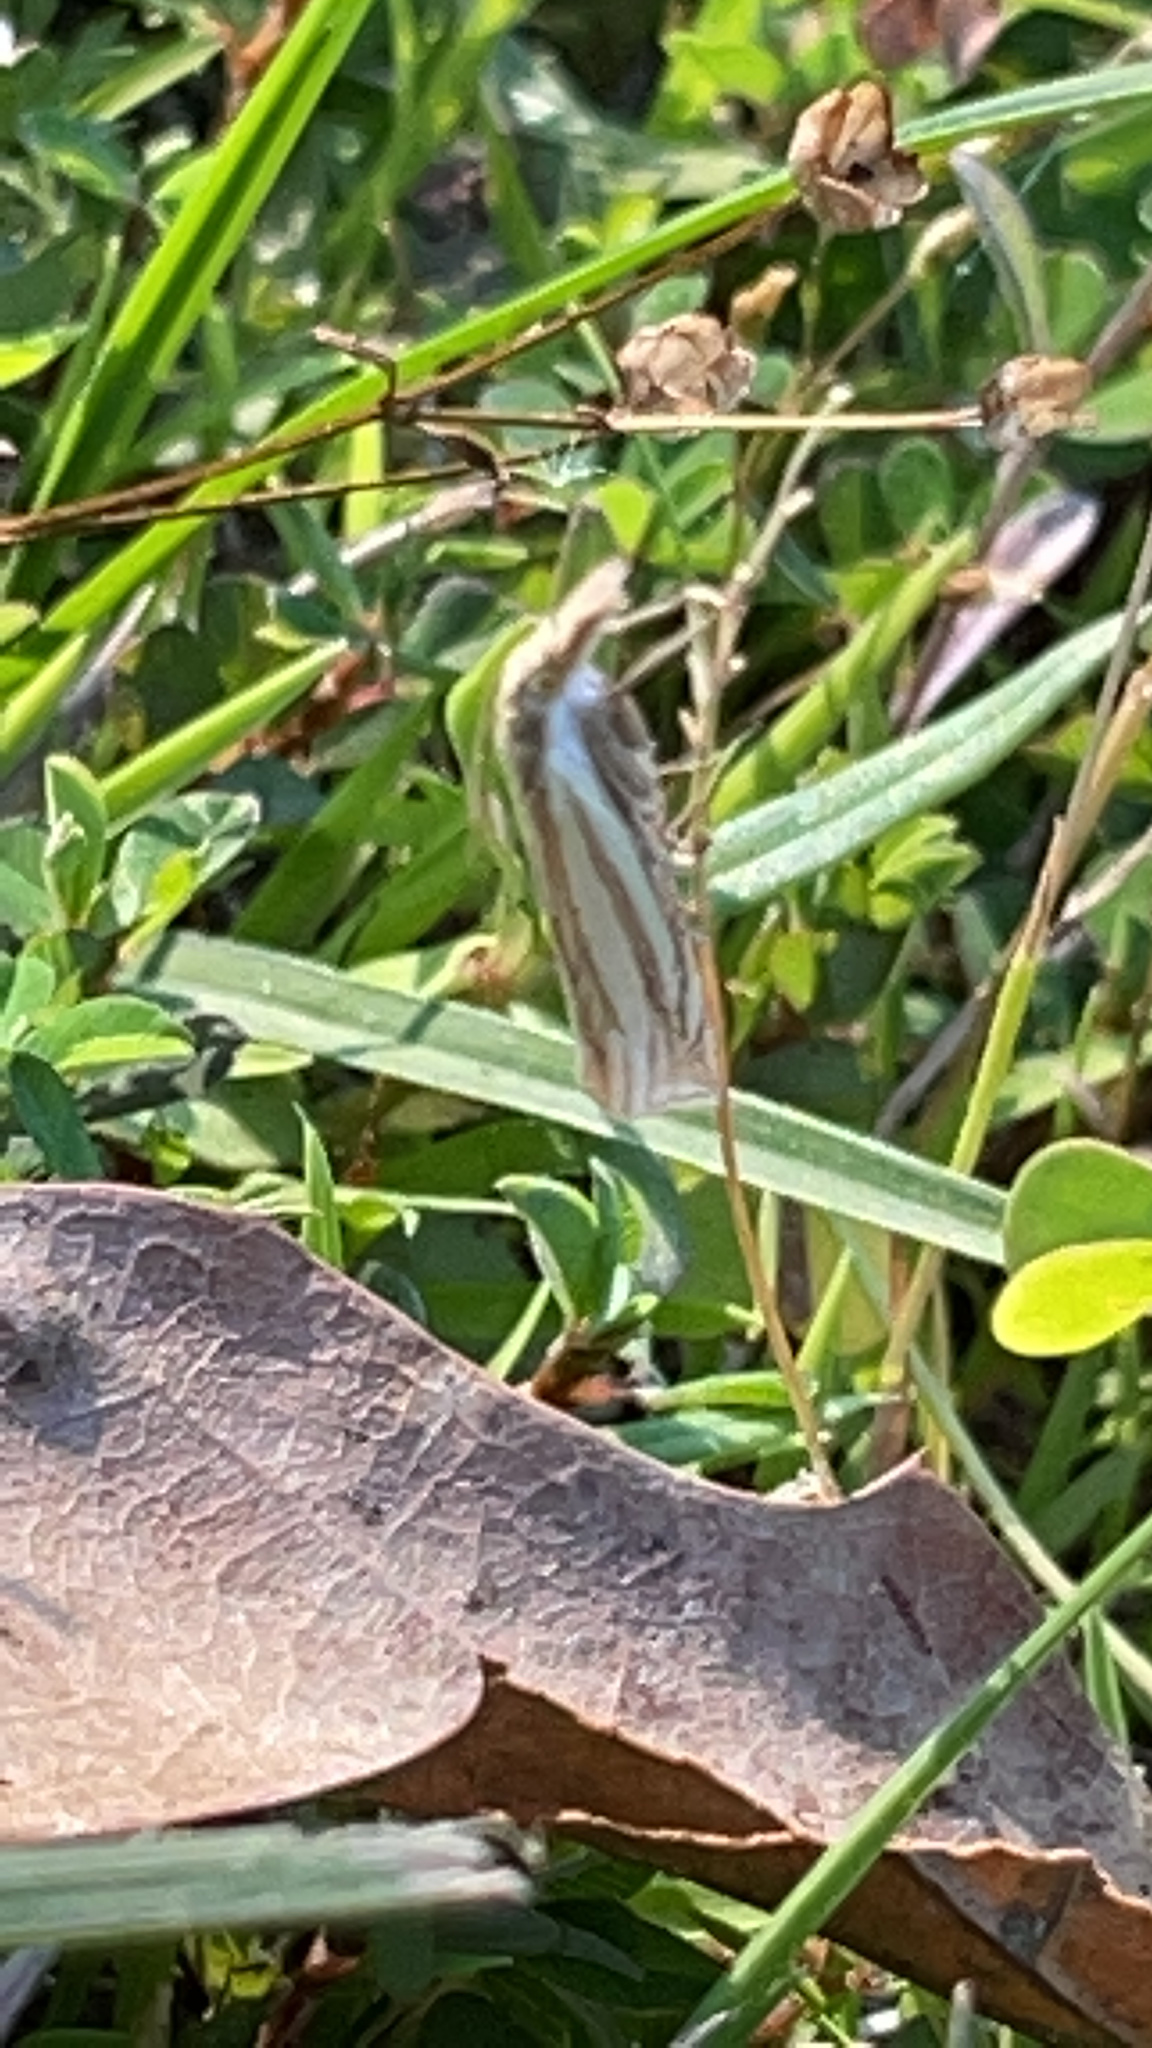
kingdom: Animalia
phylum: Arthropoda
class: Insecta
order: Lepidoptera
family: Crambidae
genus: Crambus
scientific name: Crambus laqueatellus
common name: Eastern grass-veneer
